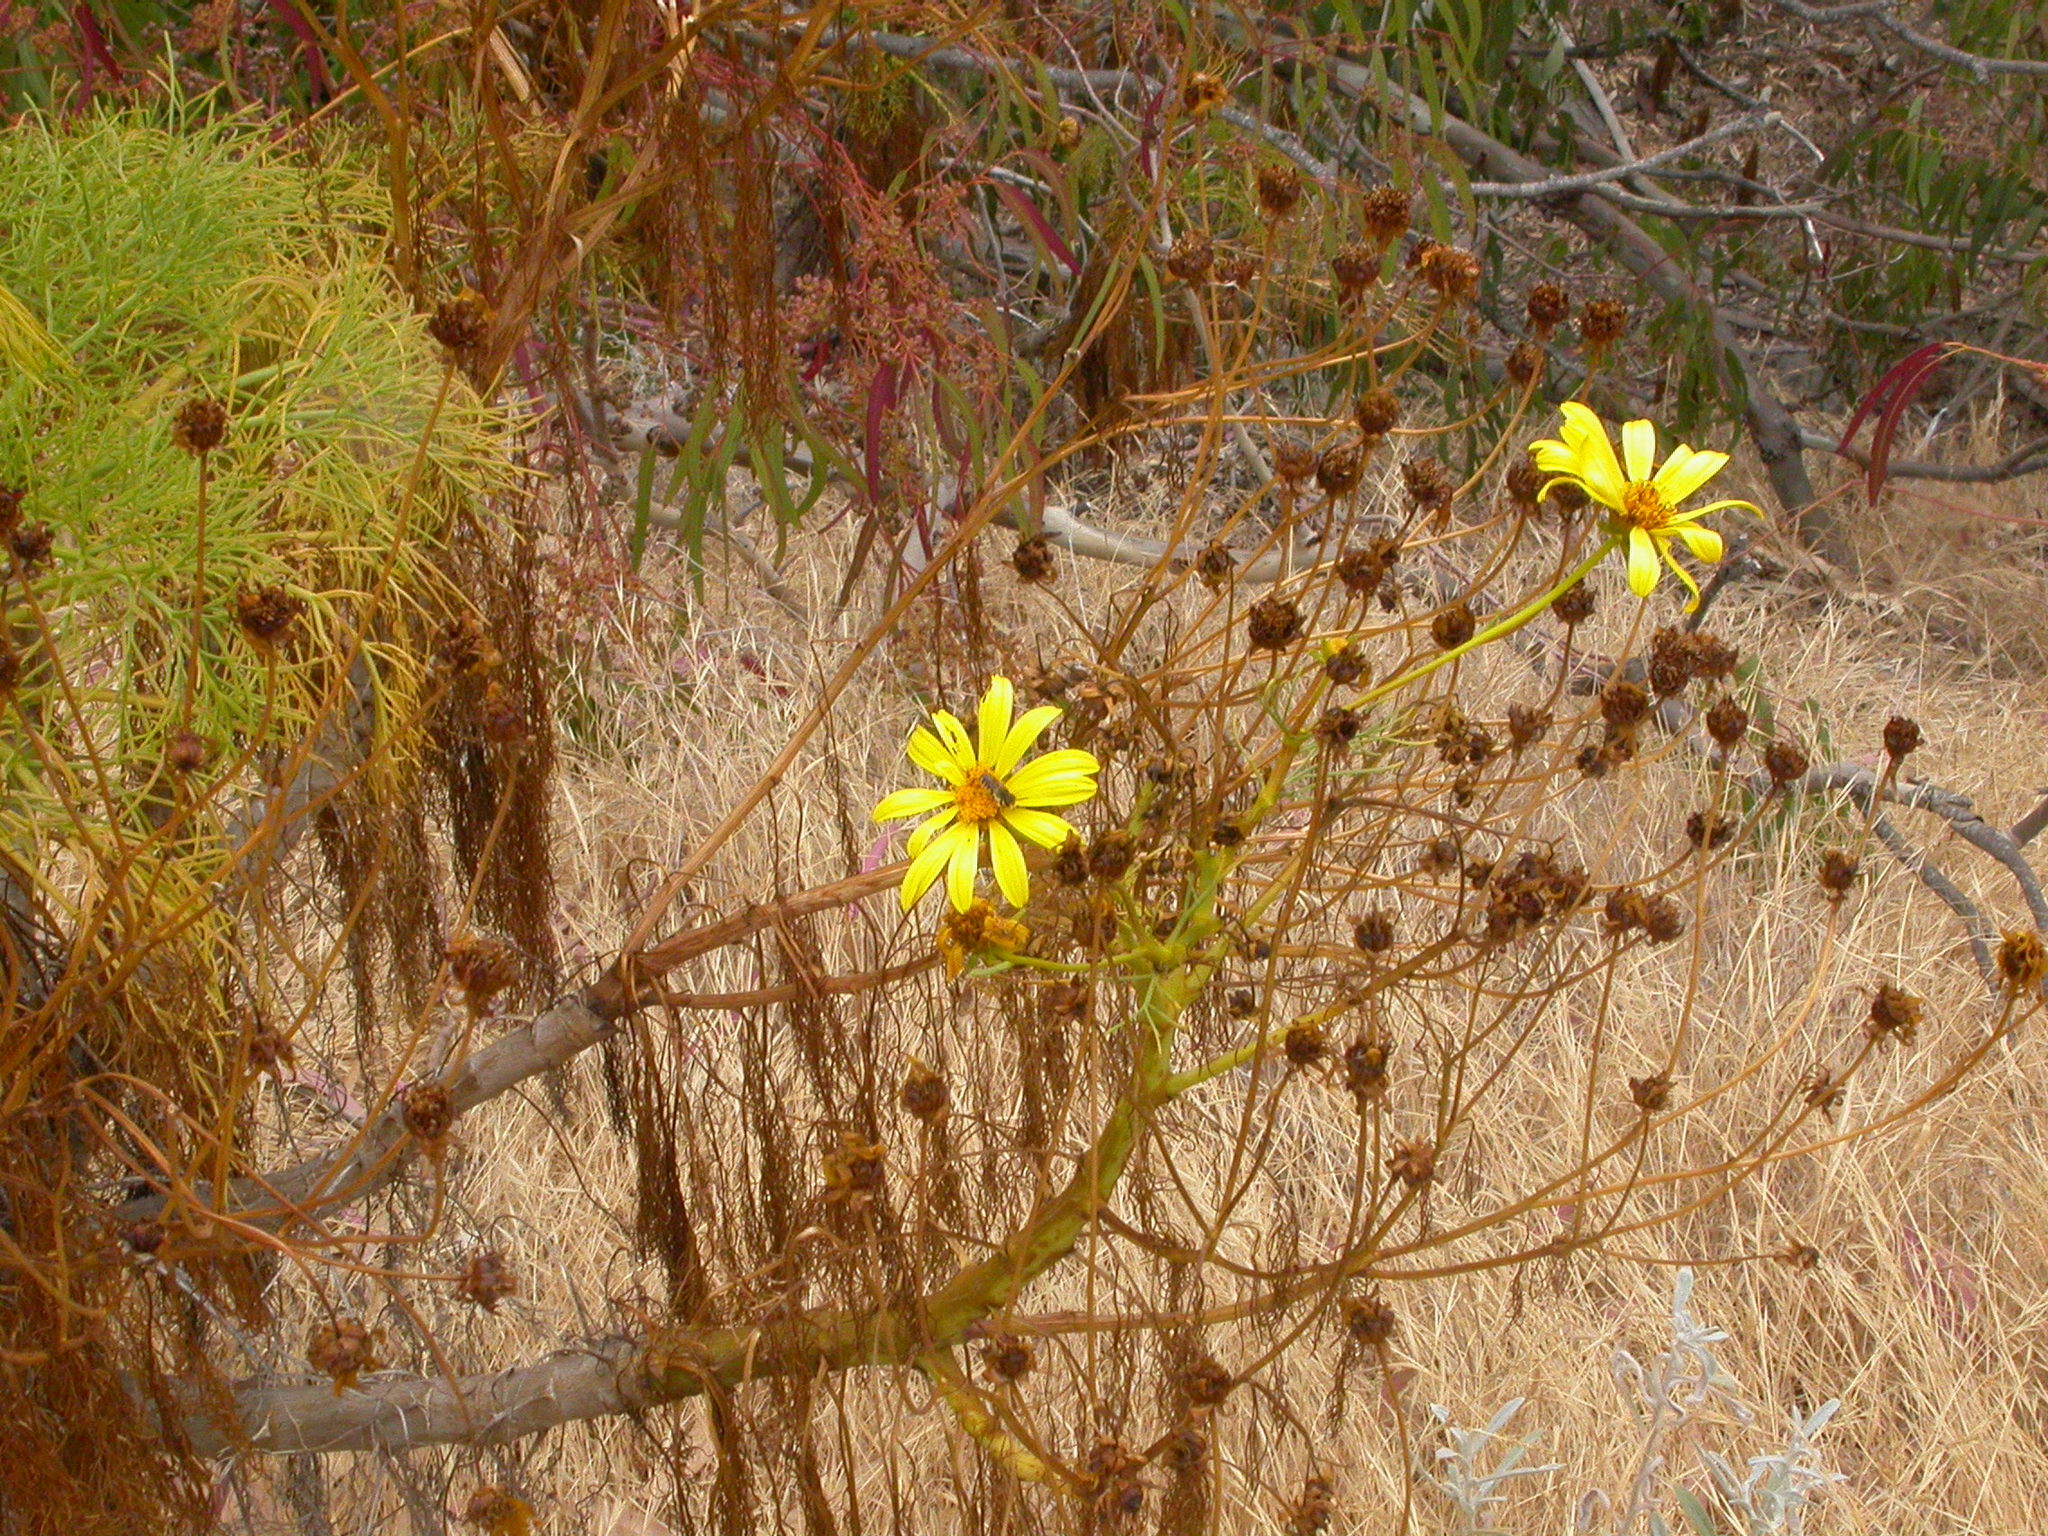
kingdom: Plantae
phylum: Tracheophyta
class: Magnoliopsida
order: Asterales
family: Asteraceae
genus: Coreopsis
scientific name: Coreopsis gigantea
